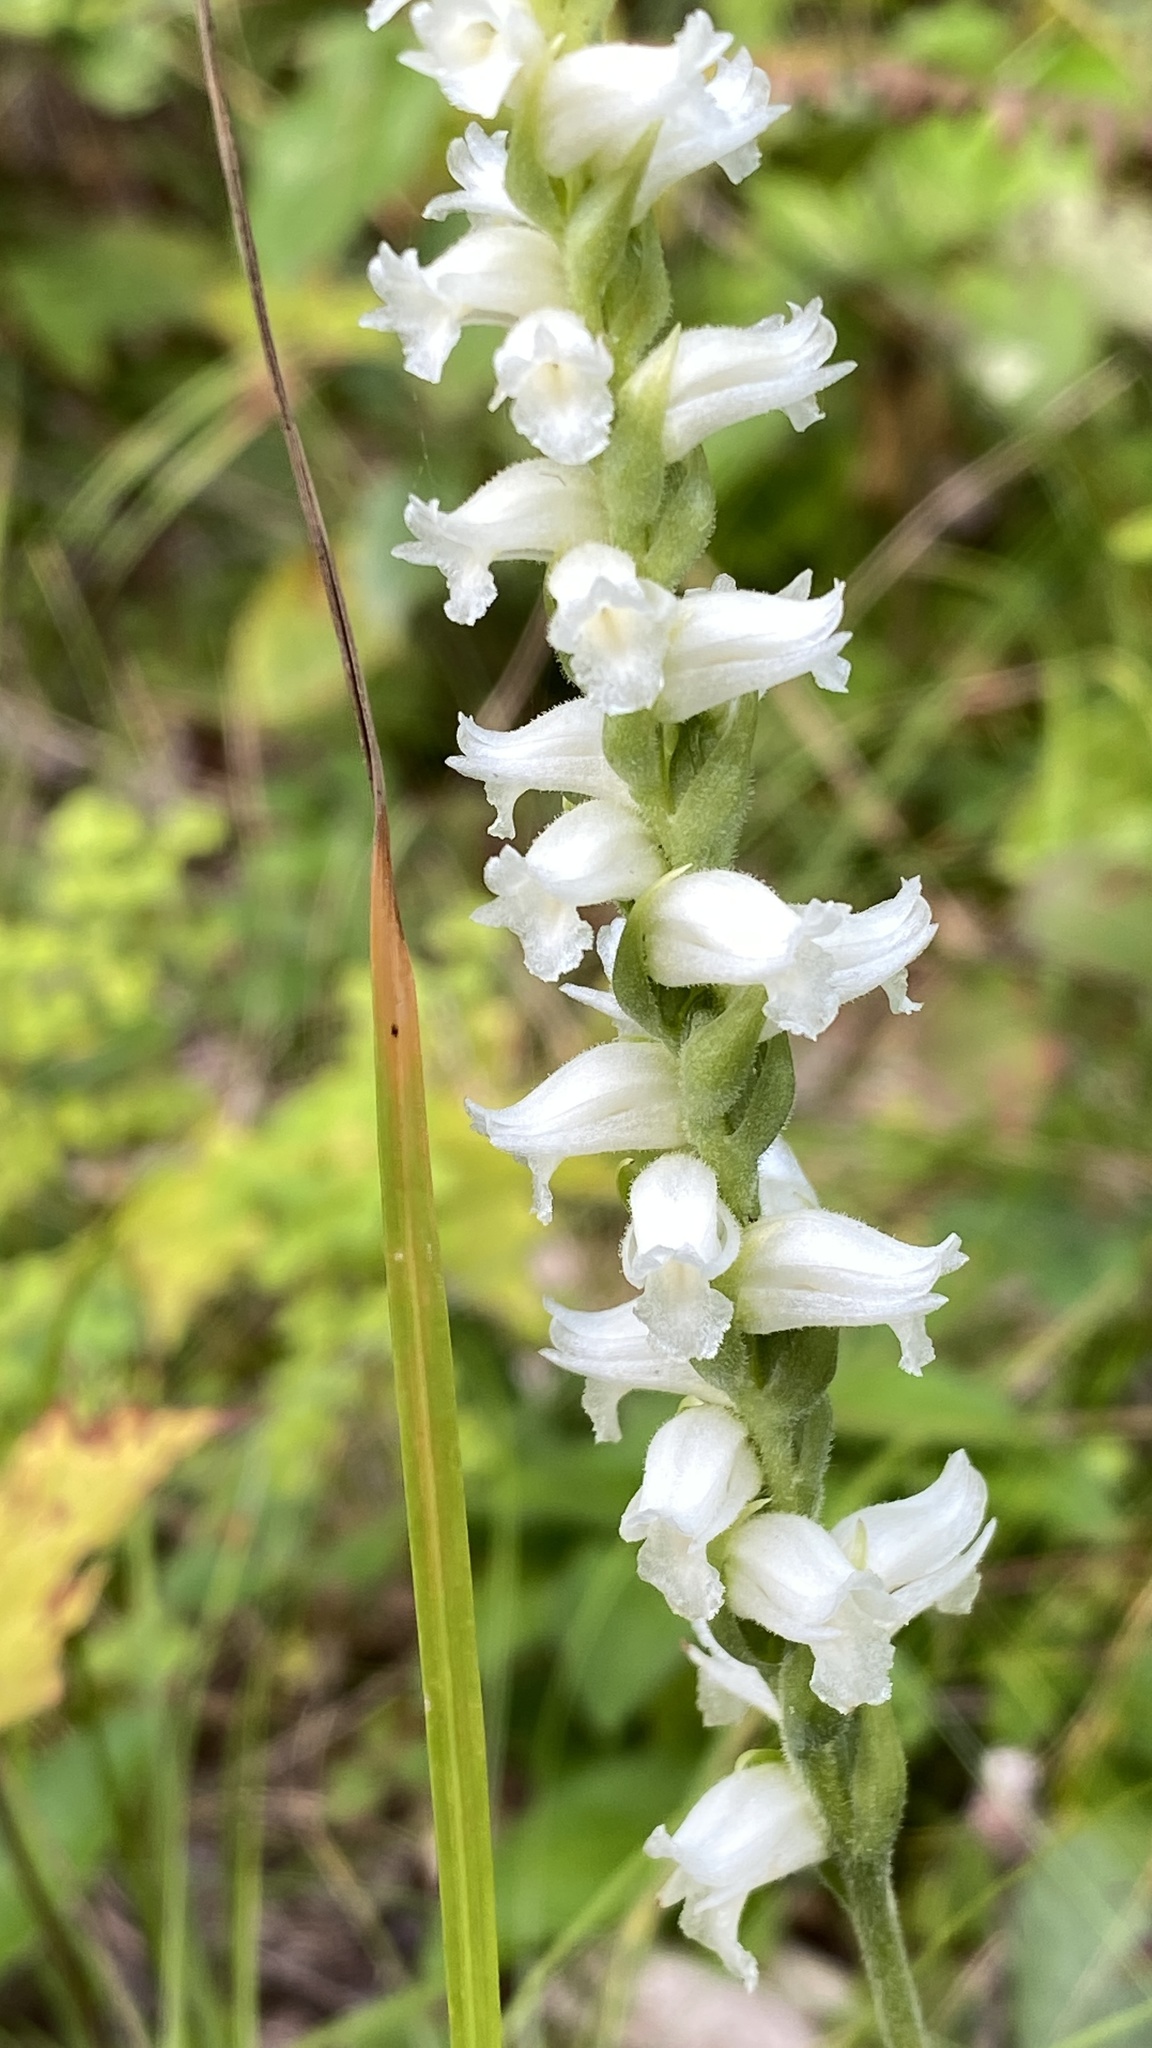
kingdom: Plantae
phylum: Tracheophyta
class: Liliopsida
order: Asparagales
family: Orchidaceae
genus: Spiranthes
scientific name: Spiranthes ochroleuca
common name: Yellow ladies'-tresses
